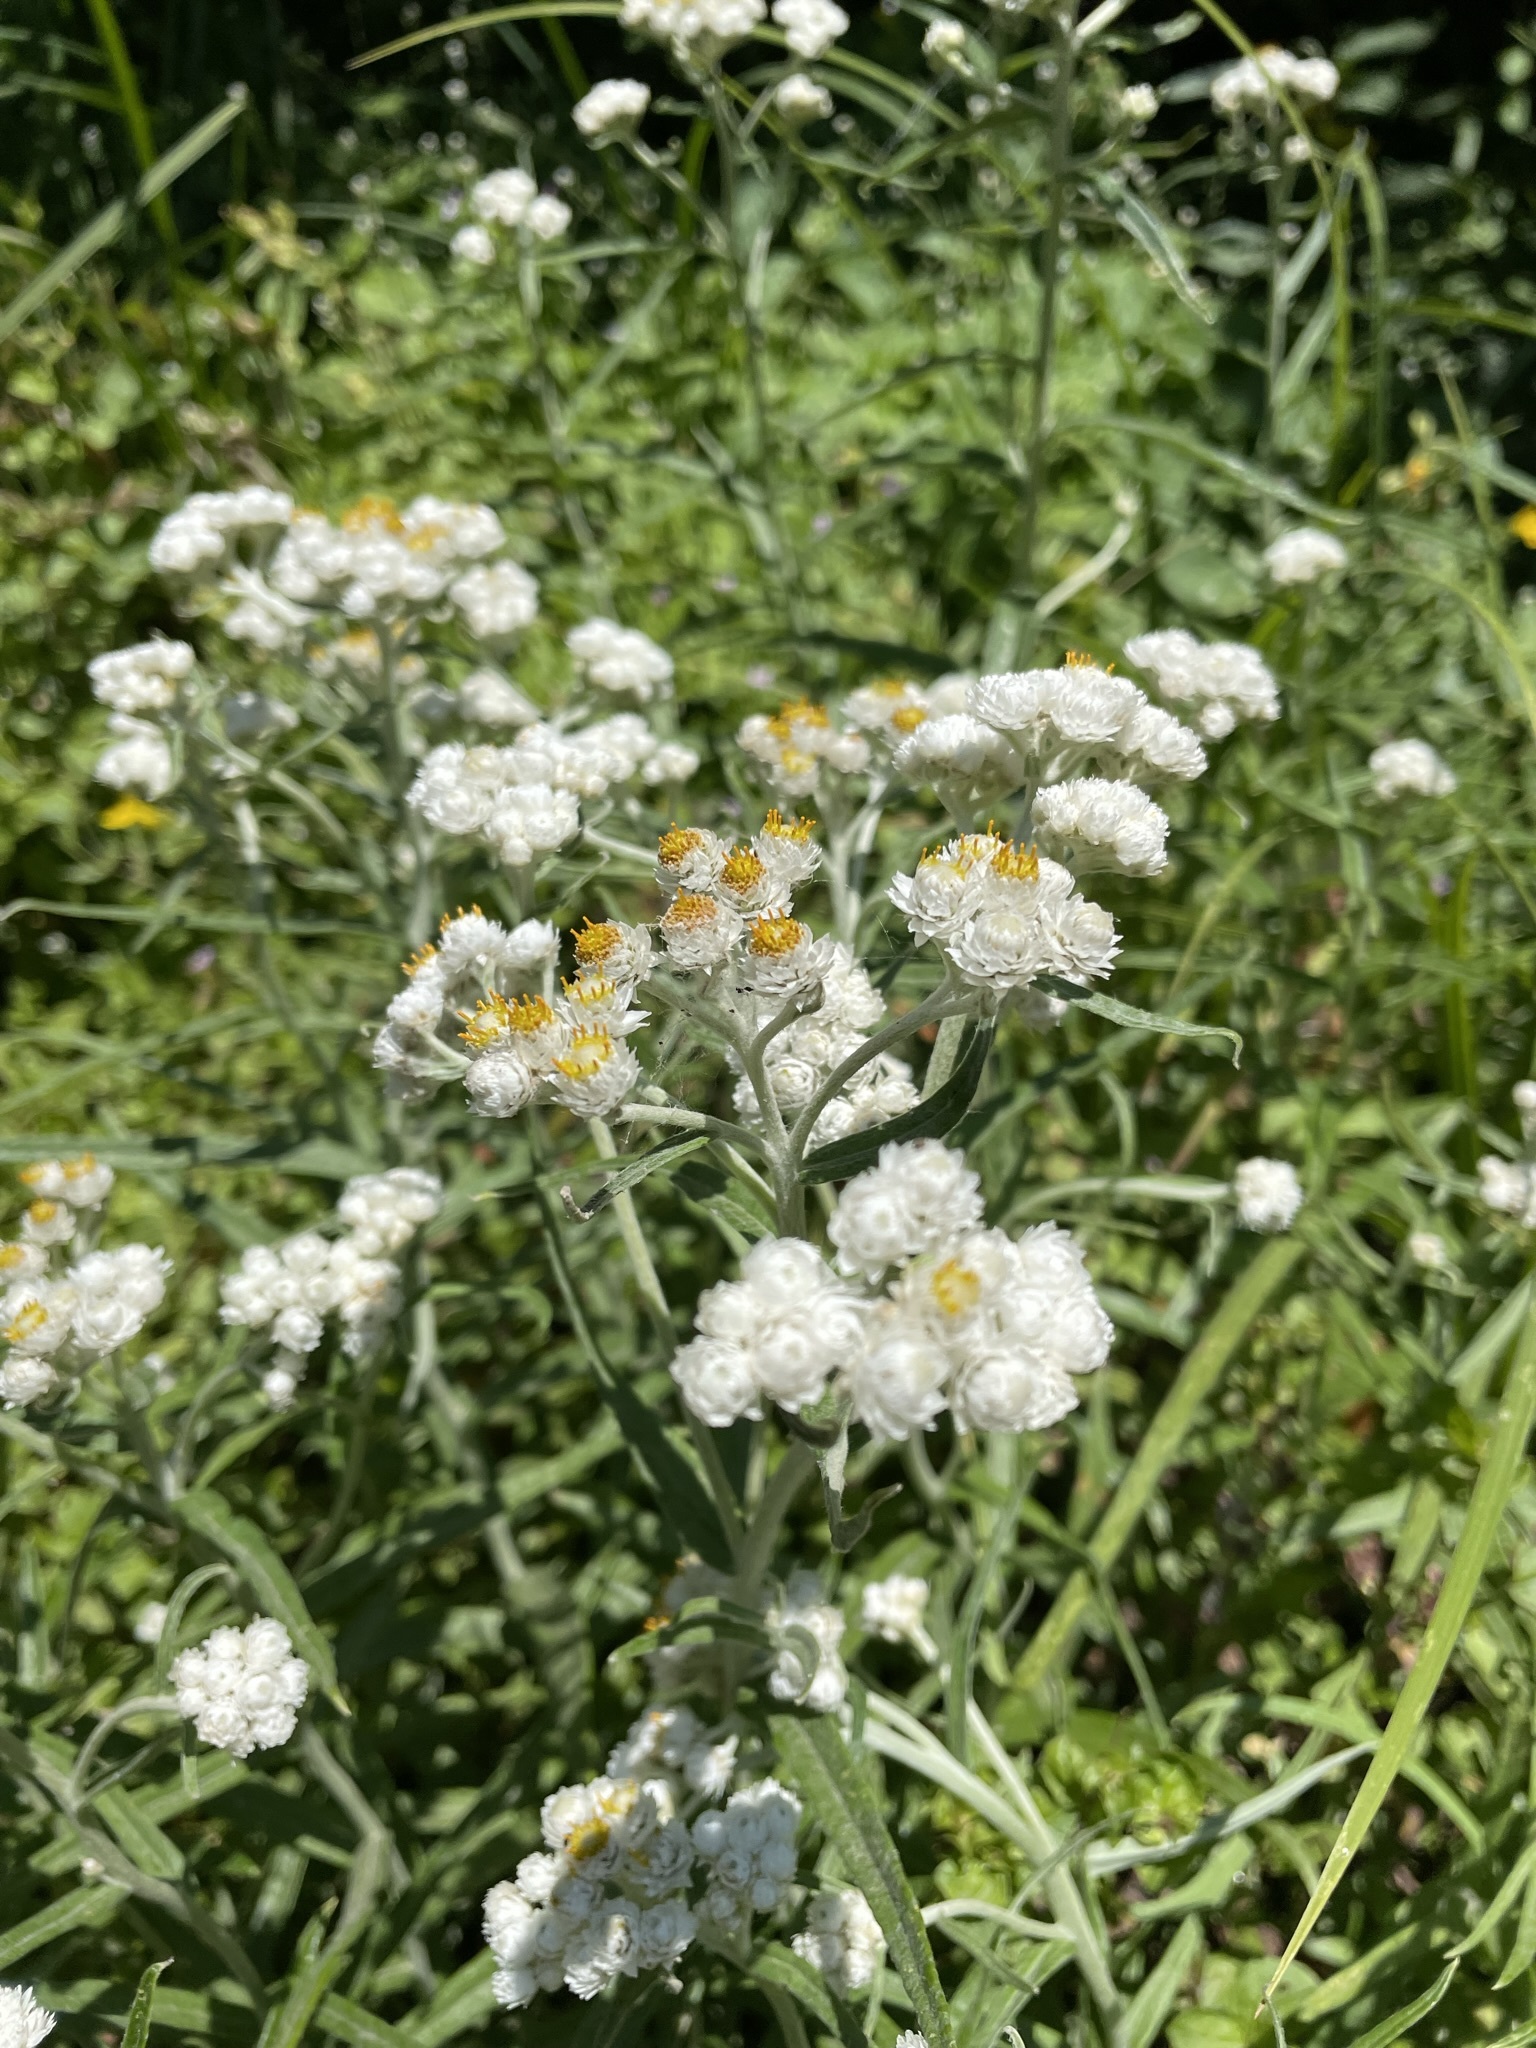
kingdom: Plantae
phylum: Tracheophyta
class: Magnoliopsida
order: Asterales
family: Asteraceae
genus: Anaphalis
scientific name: Anaphalis margaritacea
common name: Pearly everlasting
